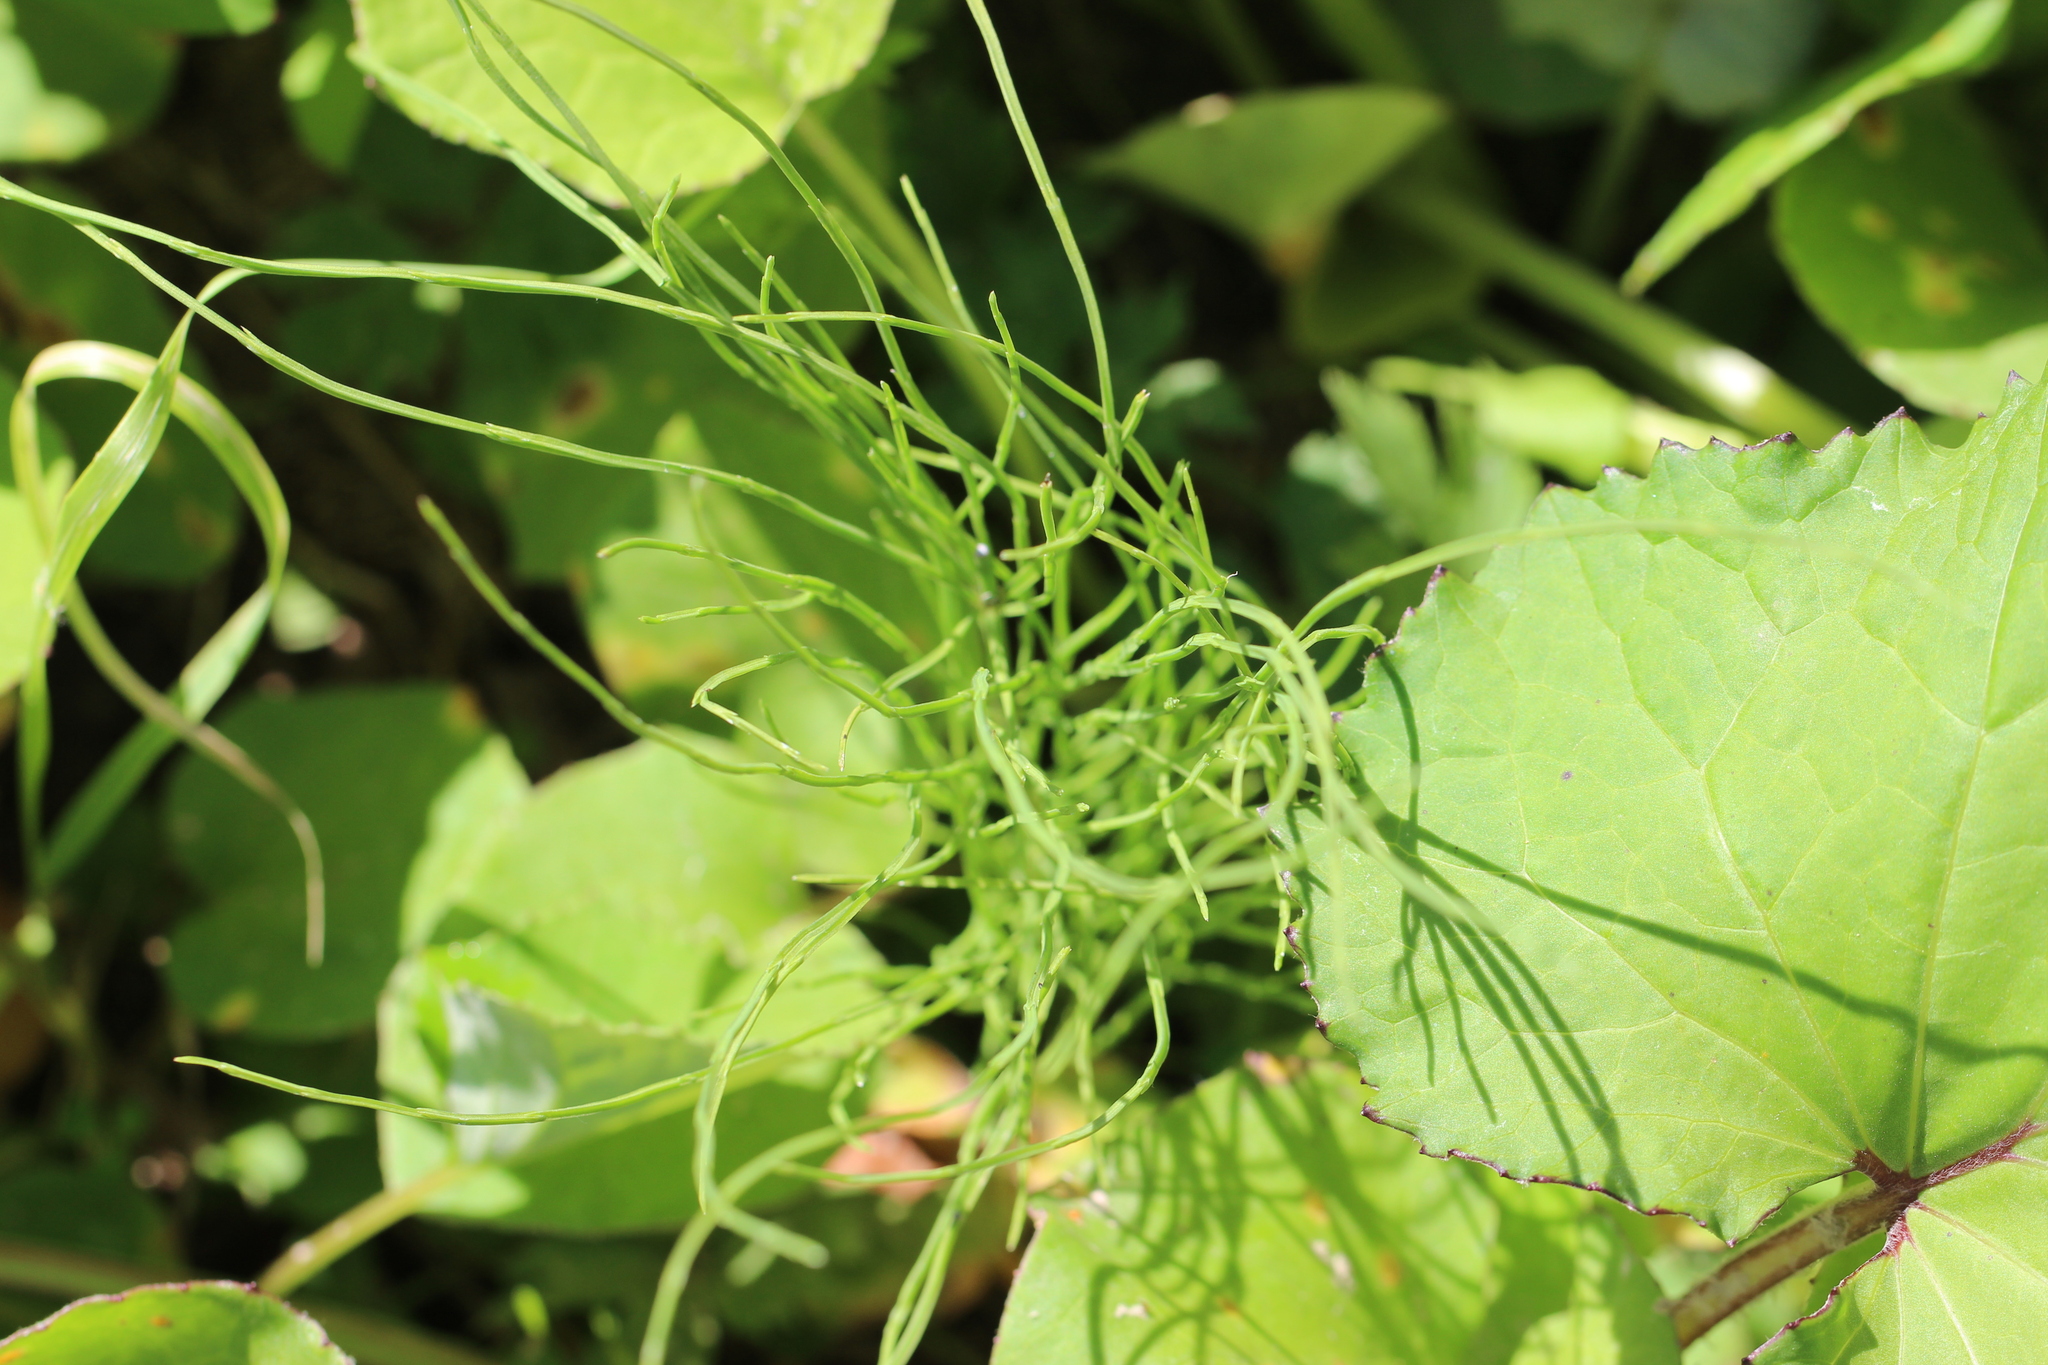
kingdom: Plantae
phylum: Tracheophyta
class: Polypodiopsida
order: Equisetales
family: Equisetaceae
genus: Equisetum
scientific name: Equisetum arvense
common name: Field horsetail
